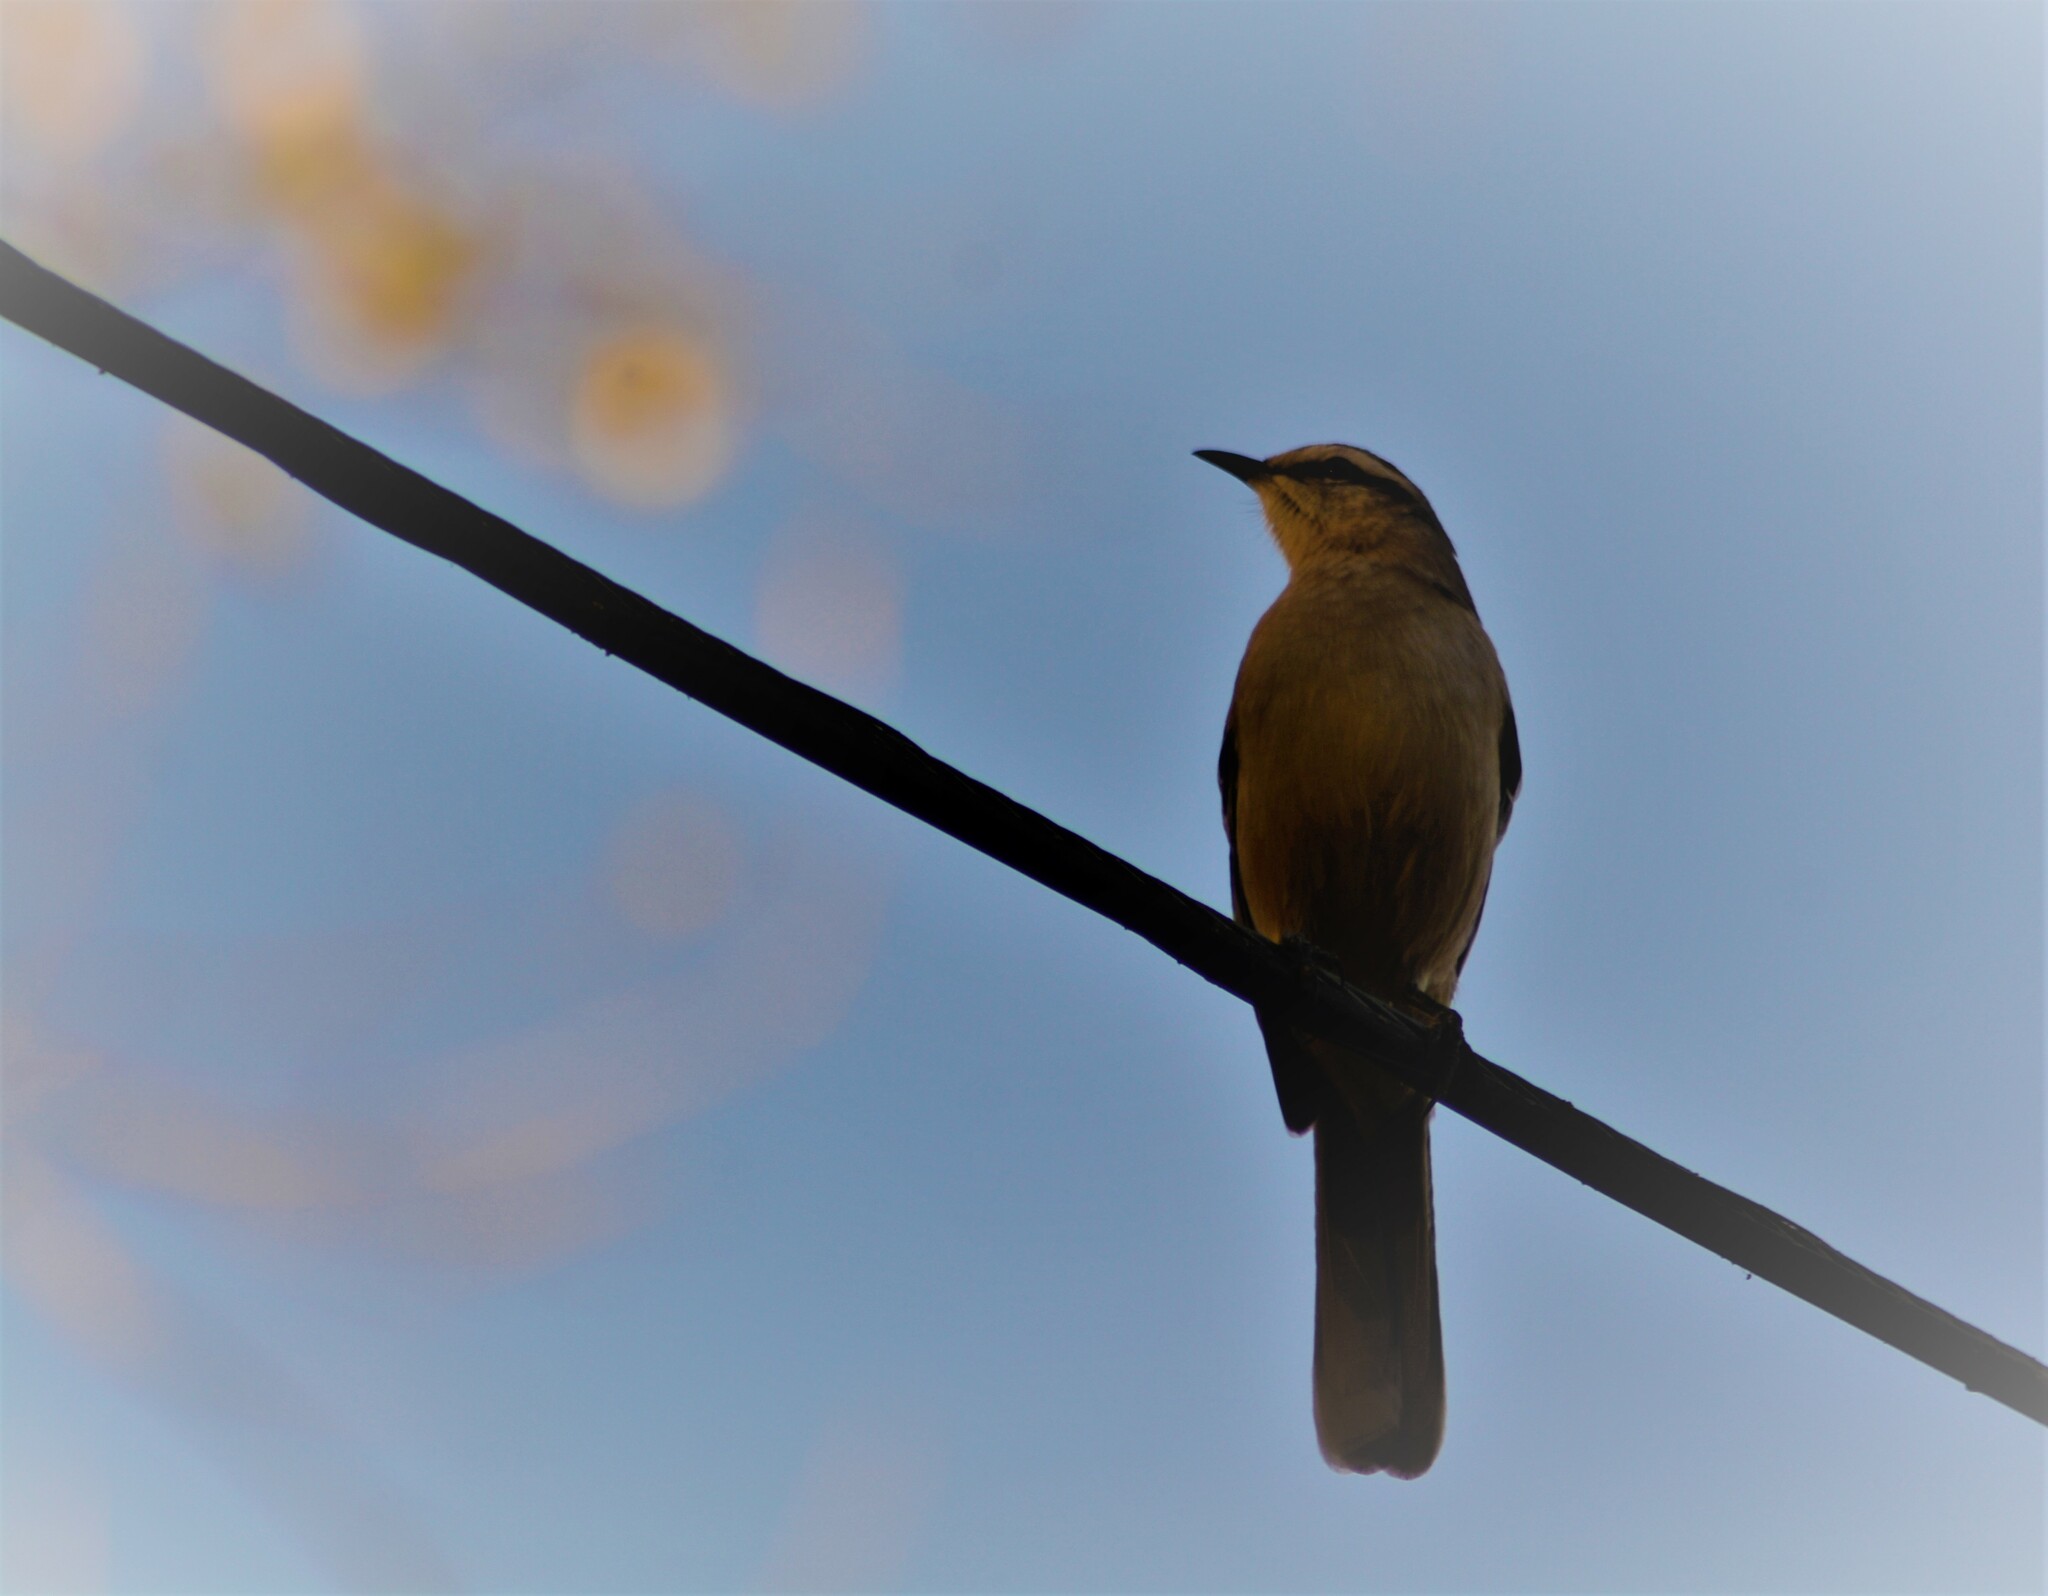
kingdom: Animalia
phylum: Chordata
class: Aves
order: Passeriformes
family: Mimidae
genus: Mimus
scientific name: Mimus saturninus
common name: Chalk-browed mockingbird
